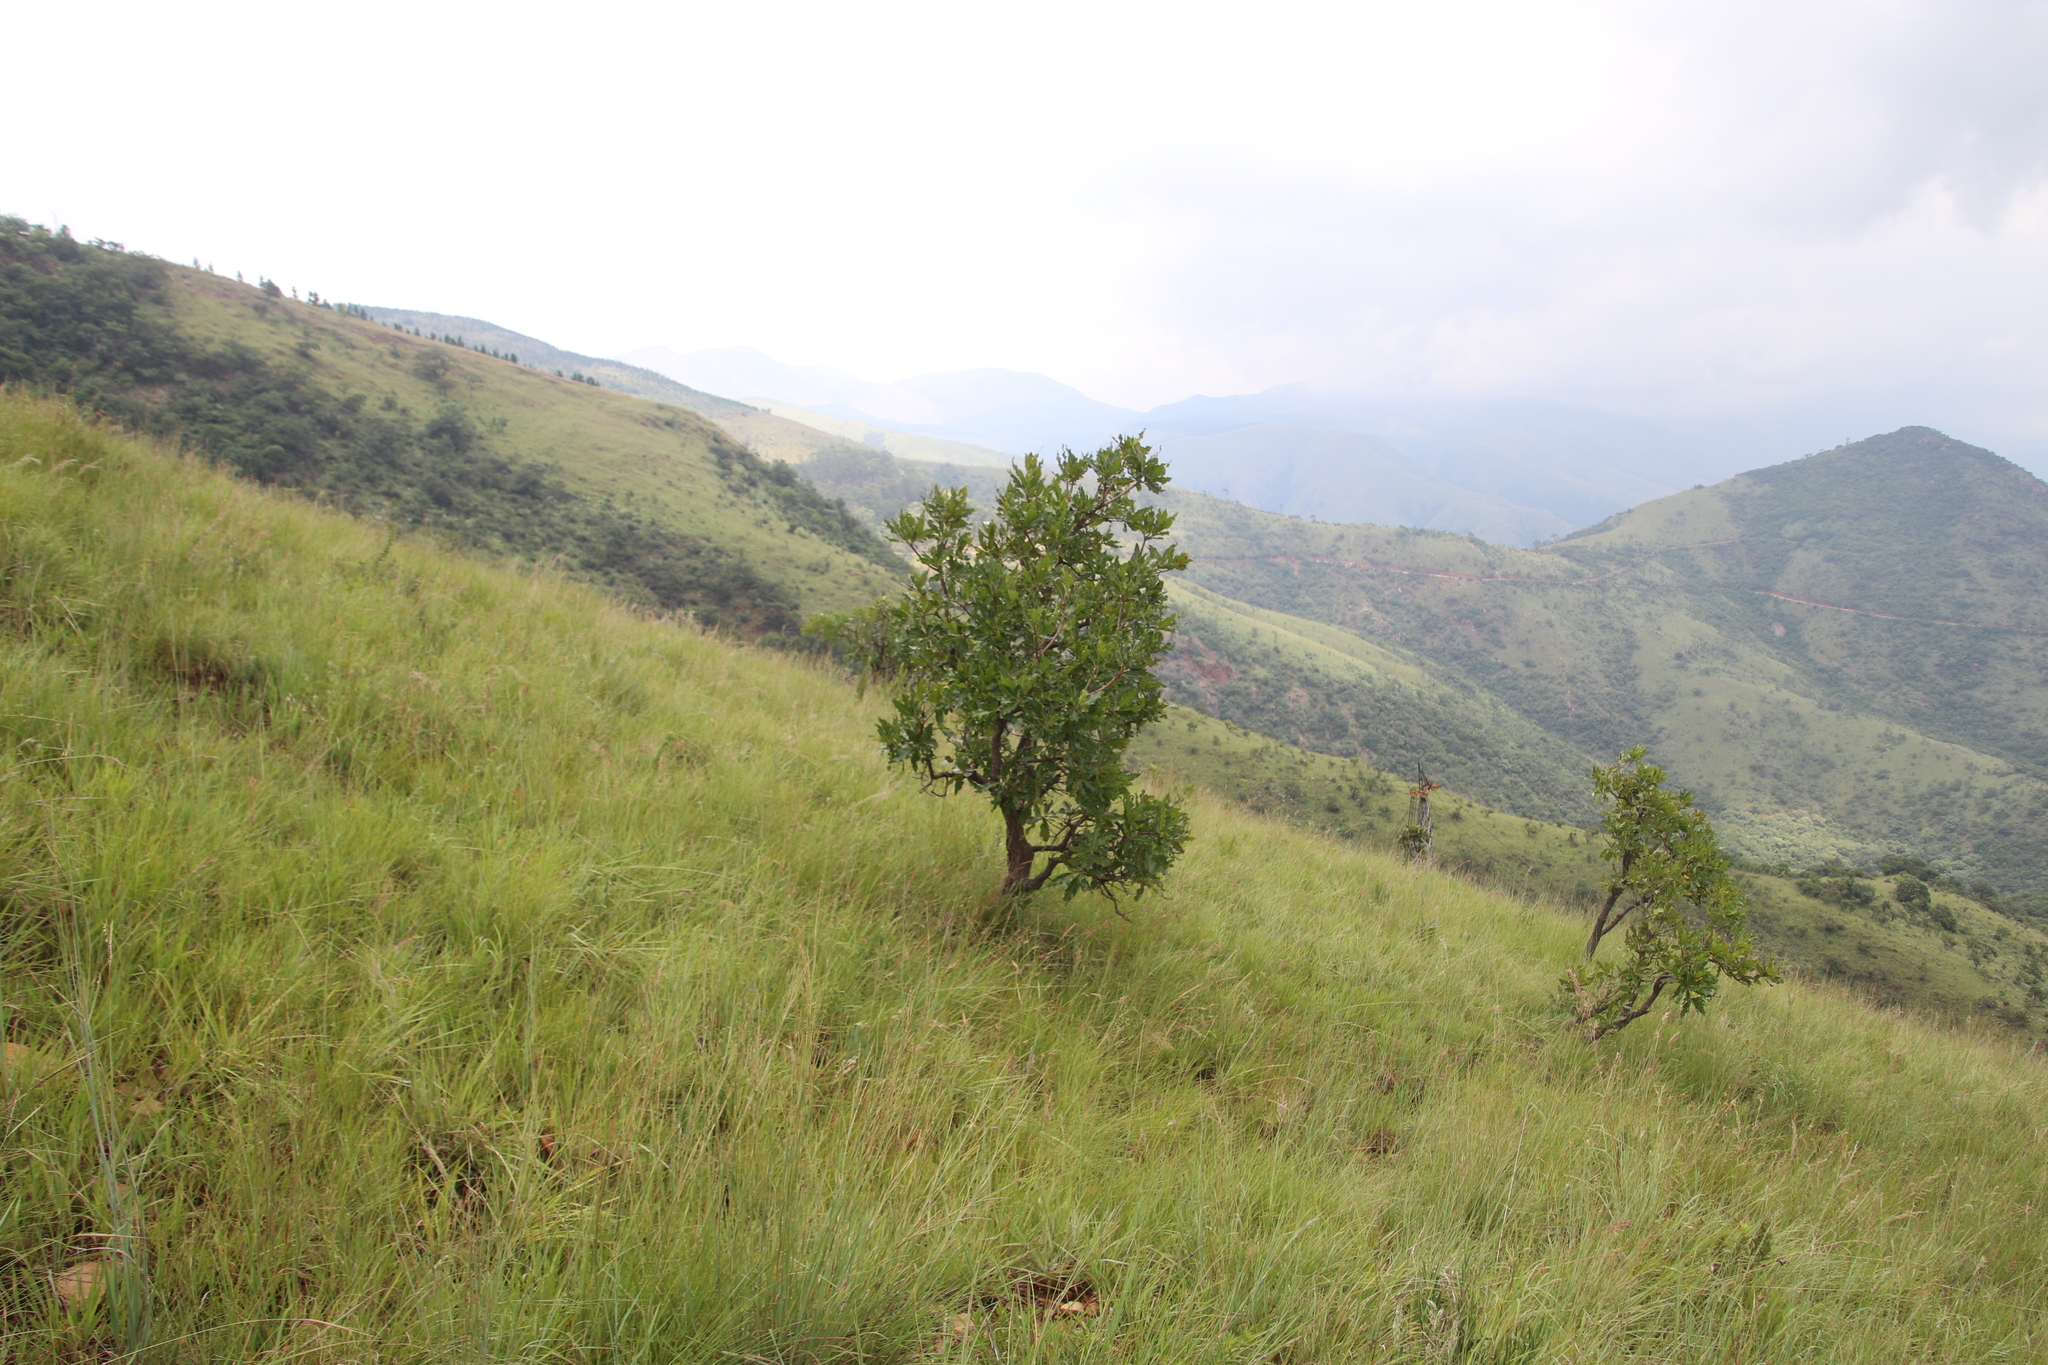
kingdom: Plantae
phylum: Tracheophyta
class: Magnoliopsida
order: Proteales
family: Proteaceae
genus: Faurea
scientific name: Faurea rochetiana
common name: Broad-leaved beech
